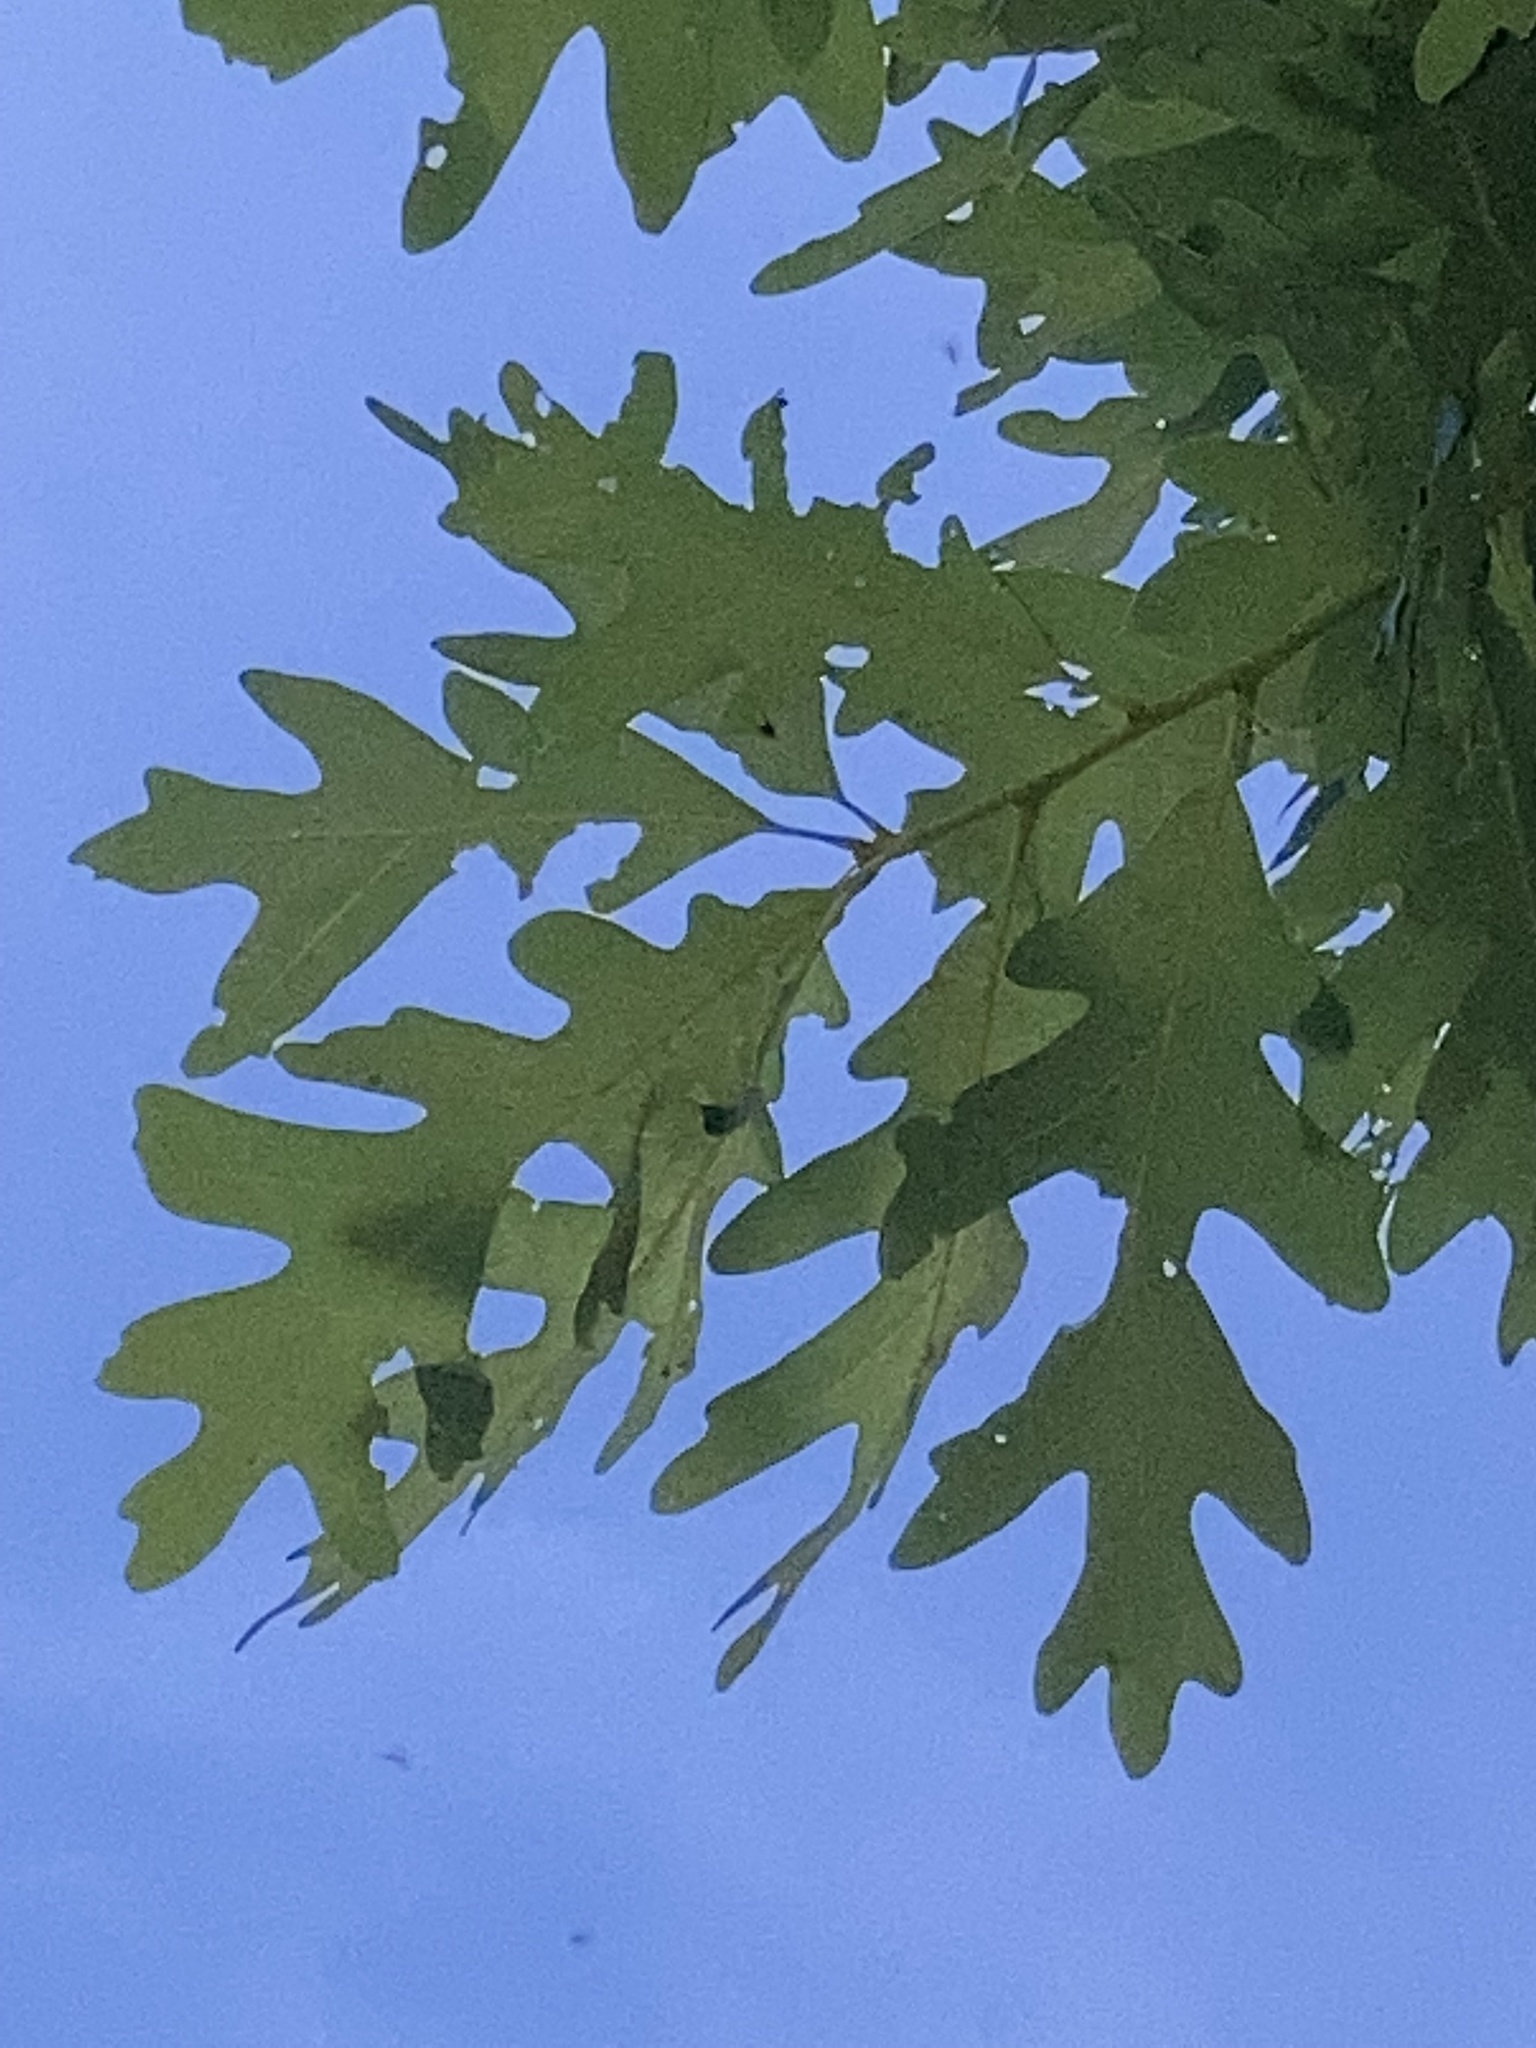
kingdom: Plantae
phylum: Tracheophyta
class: Magnoliopsida
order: Fagales
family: Fagaceae
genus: Quercus
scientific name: Quercus alba
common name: White oak
